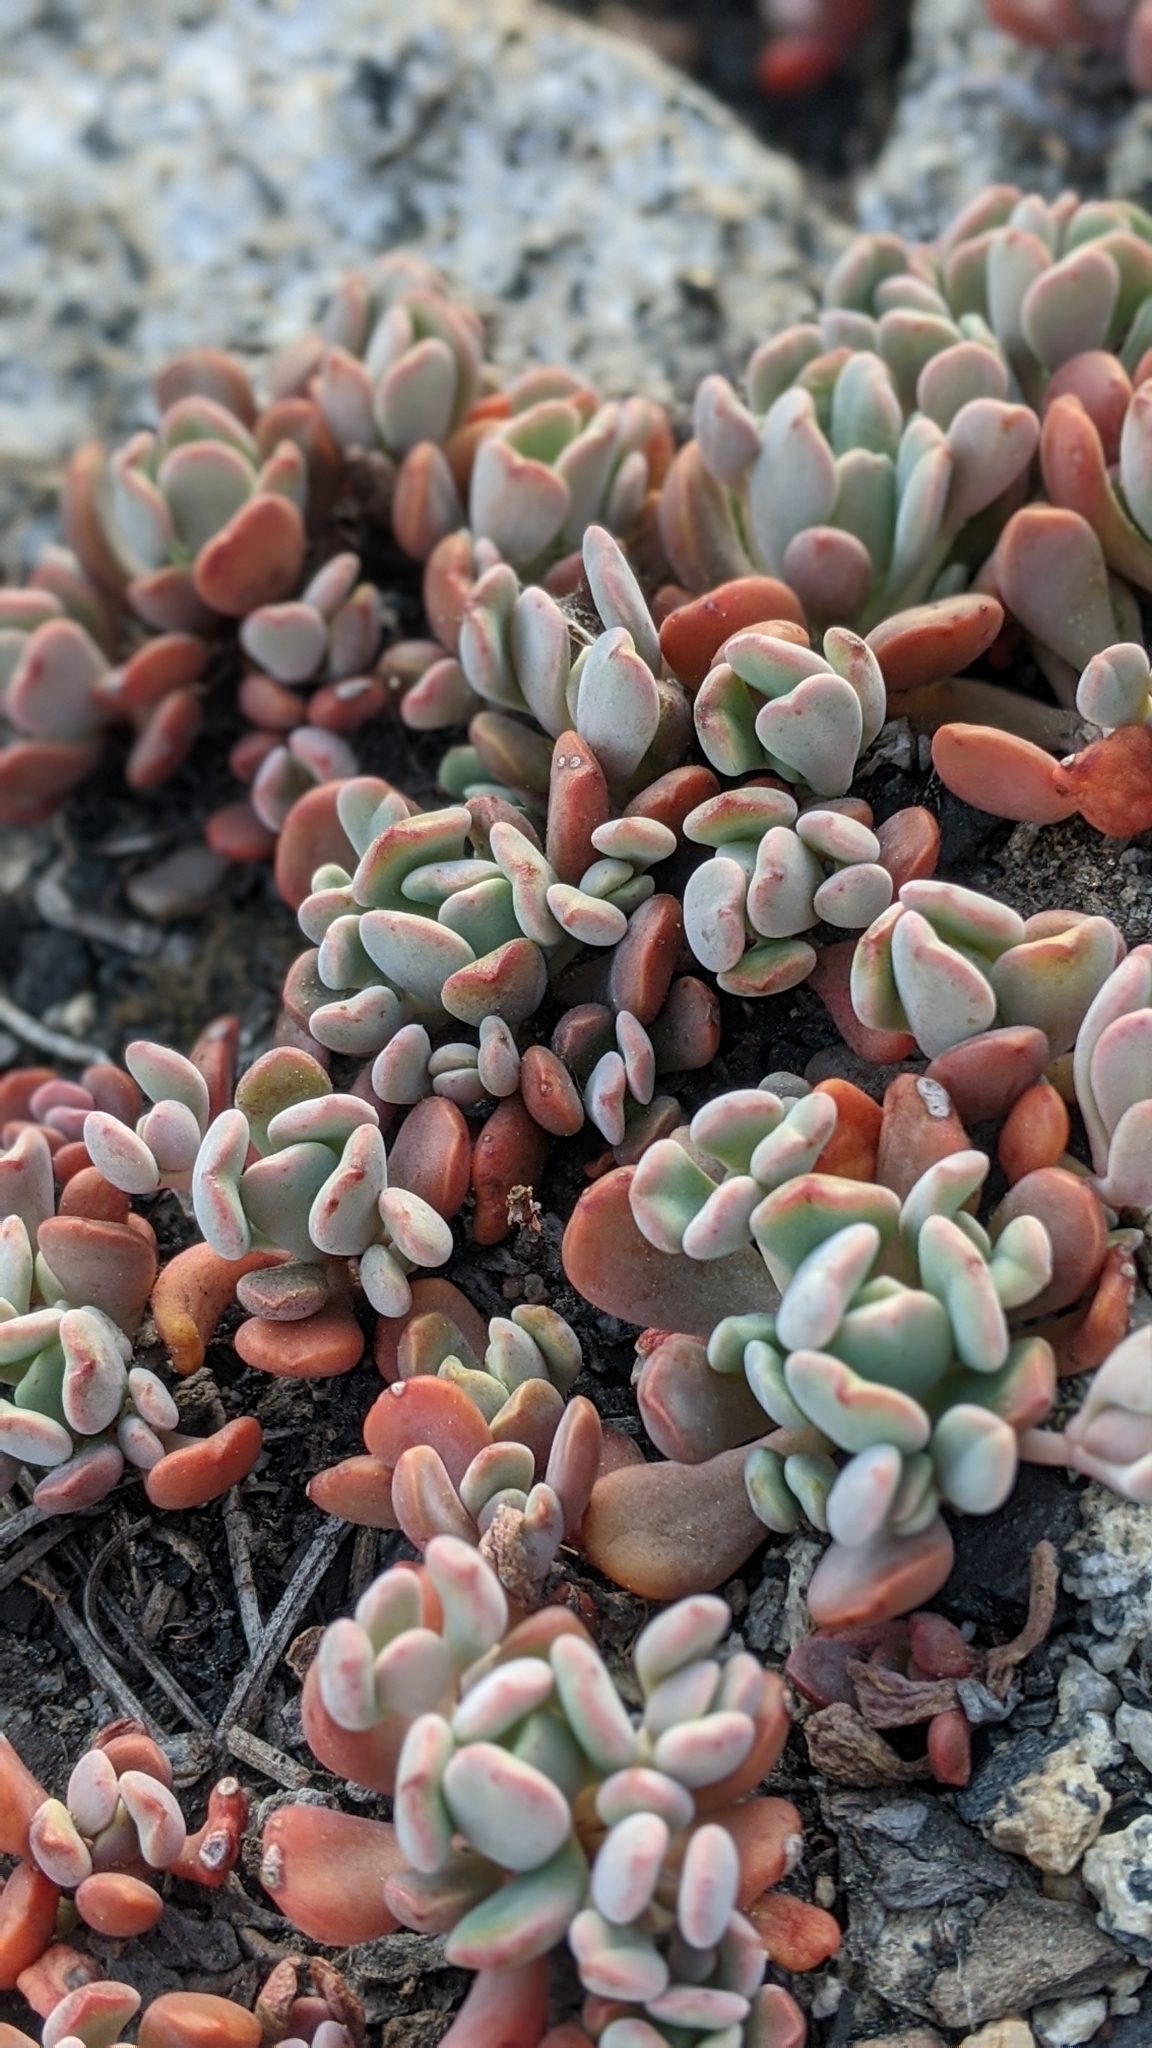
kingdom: Plantae
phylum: Tracheophyta
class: Magnoliopsida
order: Saxifragales
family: Crassulaceae
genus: Sedum
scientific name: Sedum obtusatum
